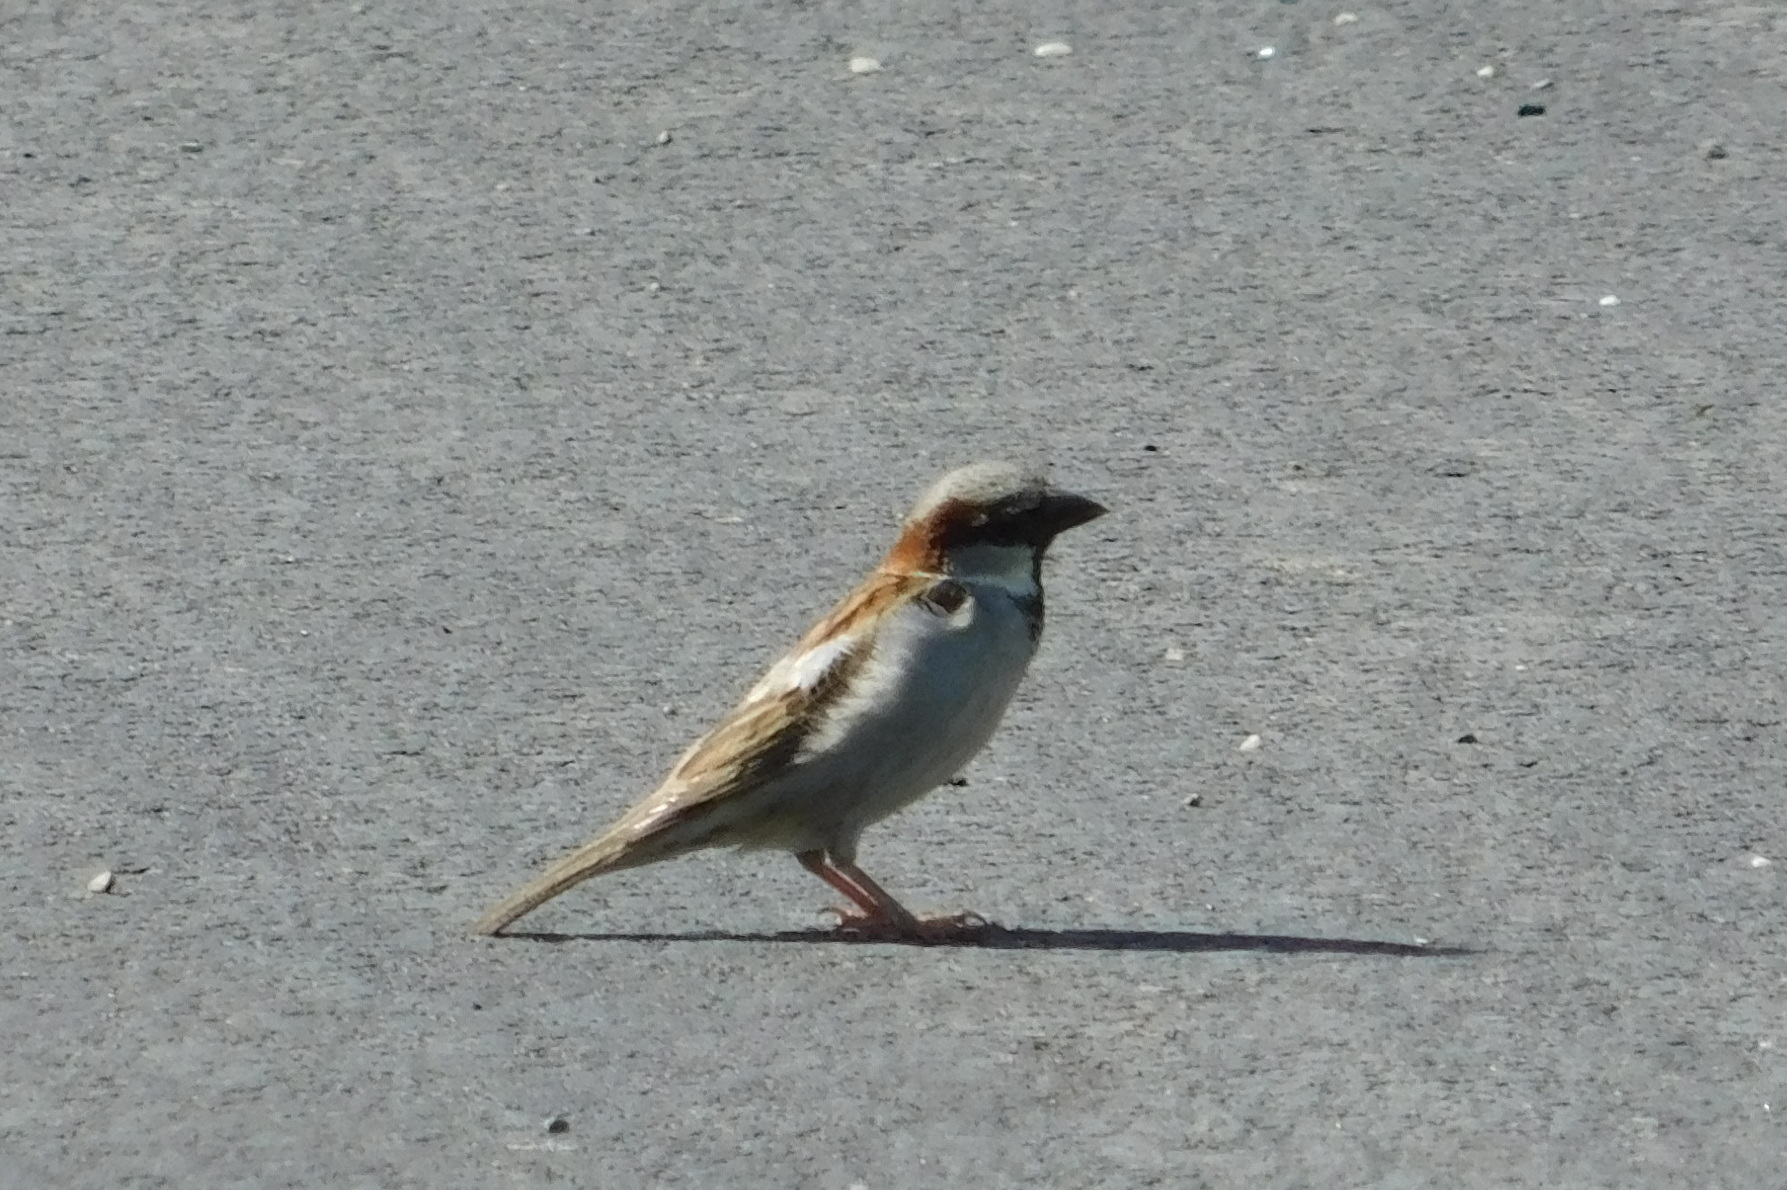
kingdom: Animalia
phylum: Chordata
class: Aves
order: Passeriformes
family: Passeridae
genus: Passer
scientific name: Passer domesticus
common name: House sparrow
